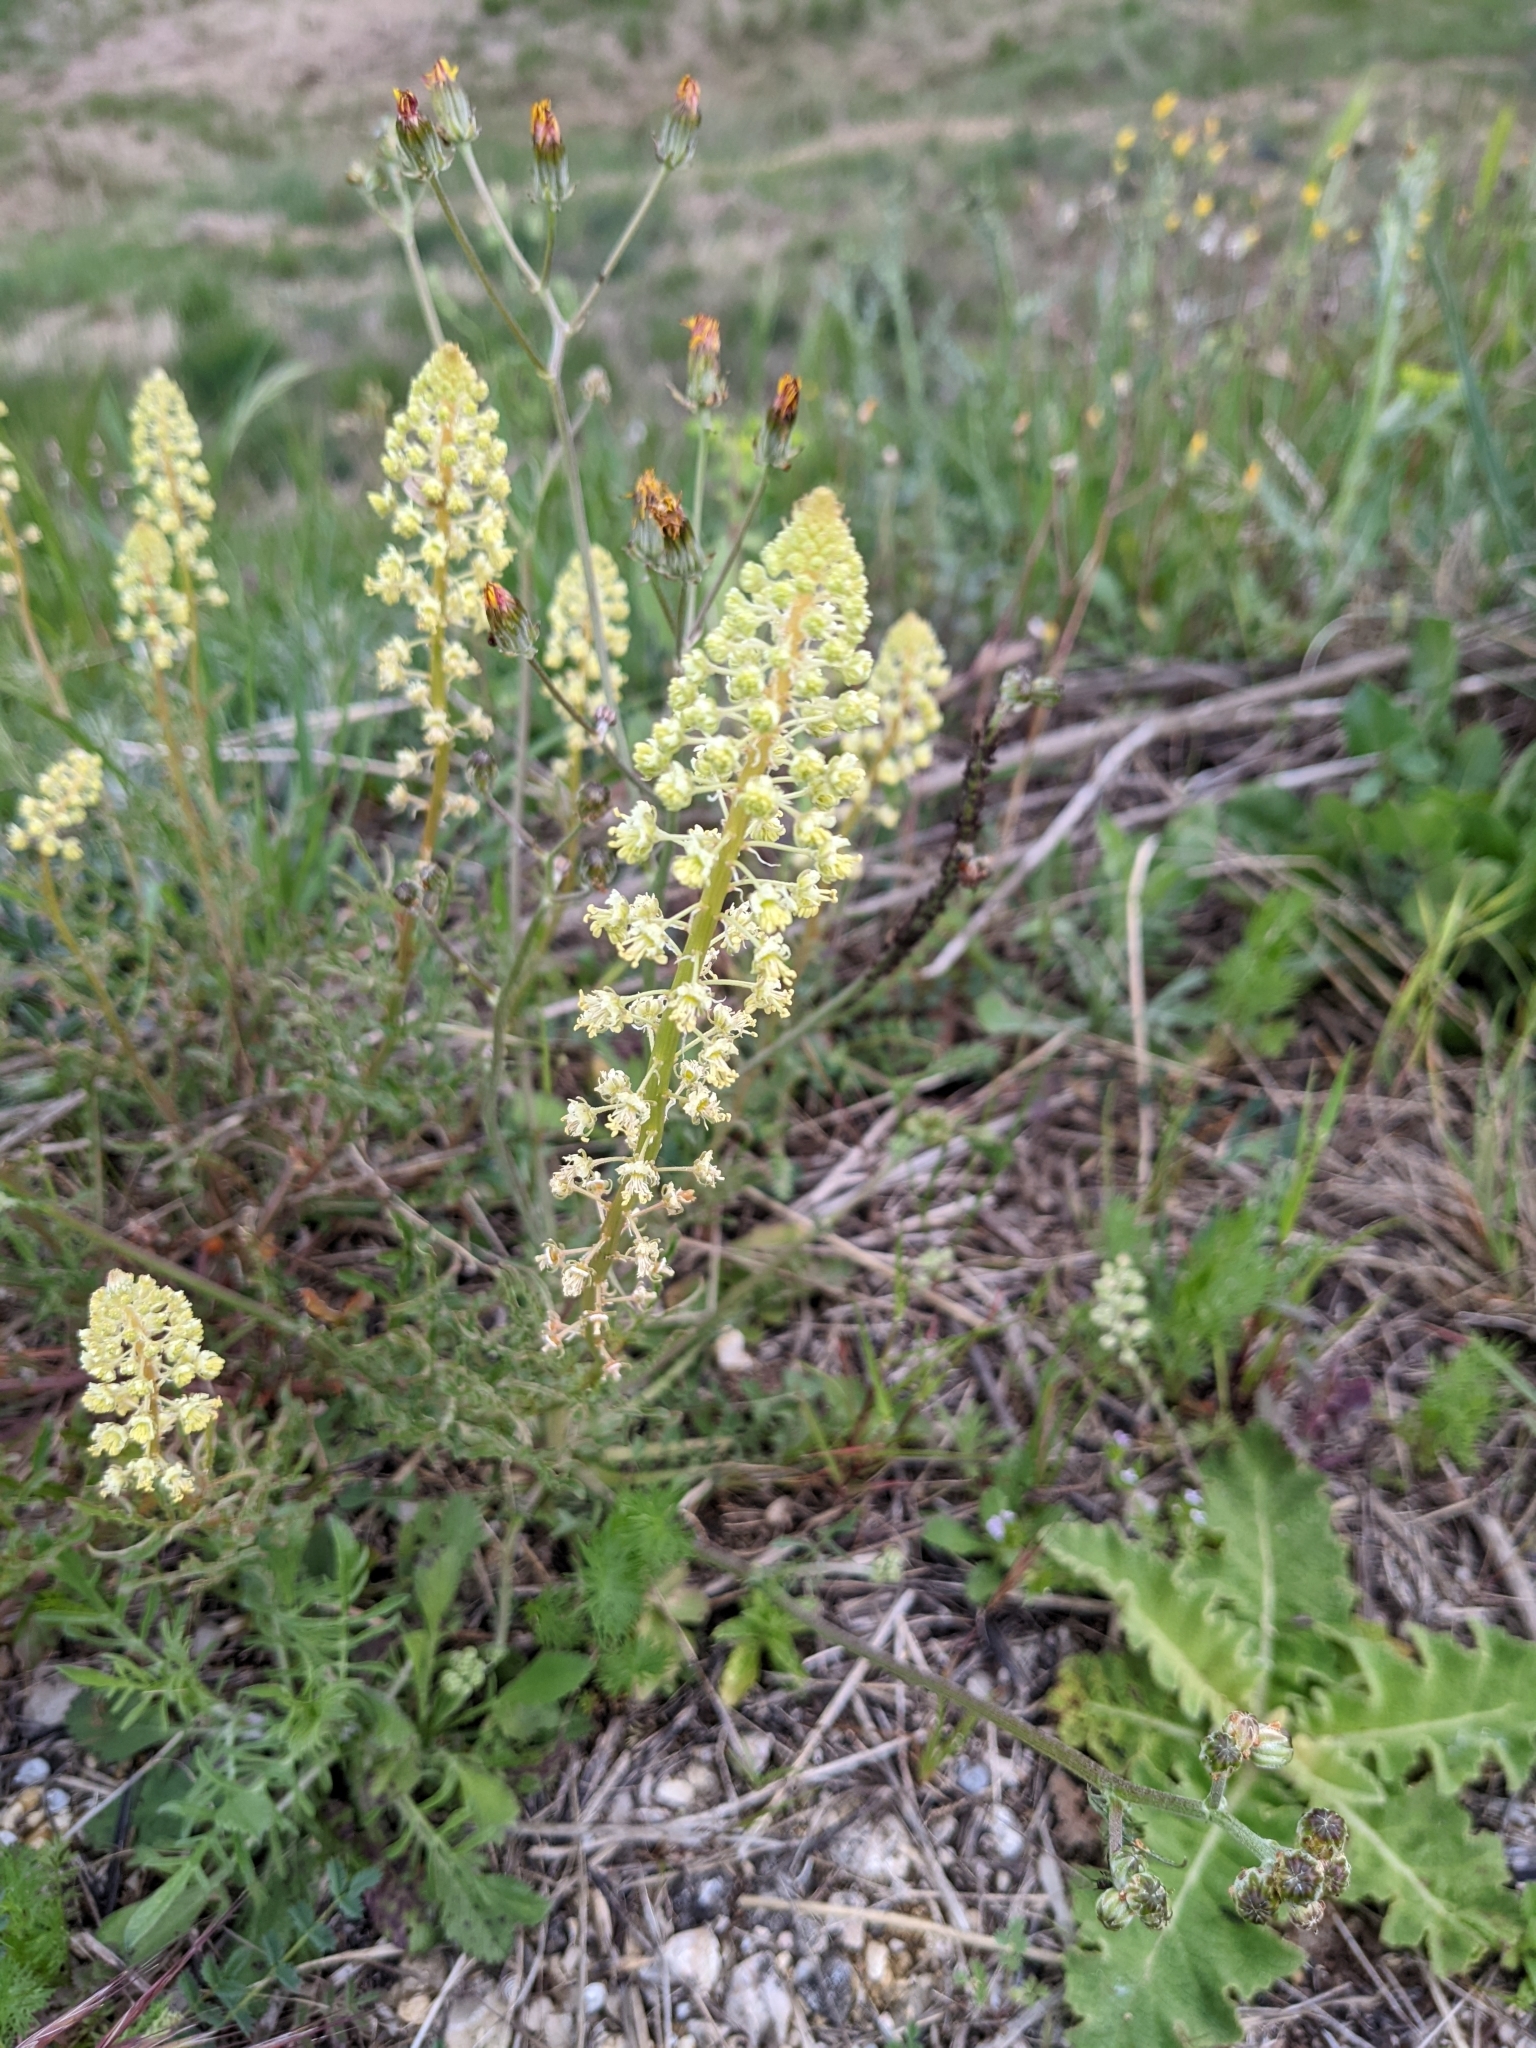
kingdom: Plantae
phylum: Tracheophyta
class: Magnoliopsida
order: Brassicales
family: Resedaceae
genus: Reseda
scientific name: Reseda lutea
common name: Wild mignonette
